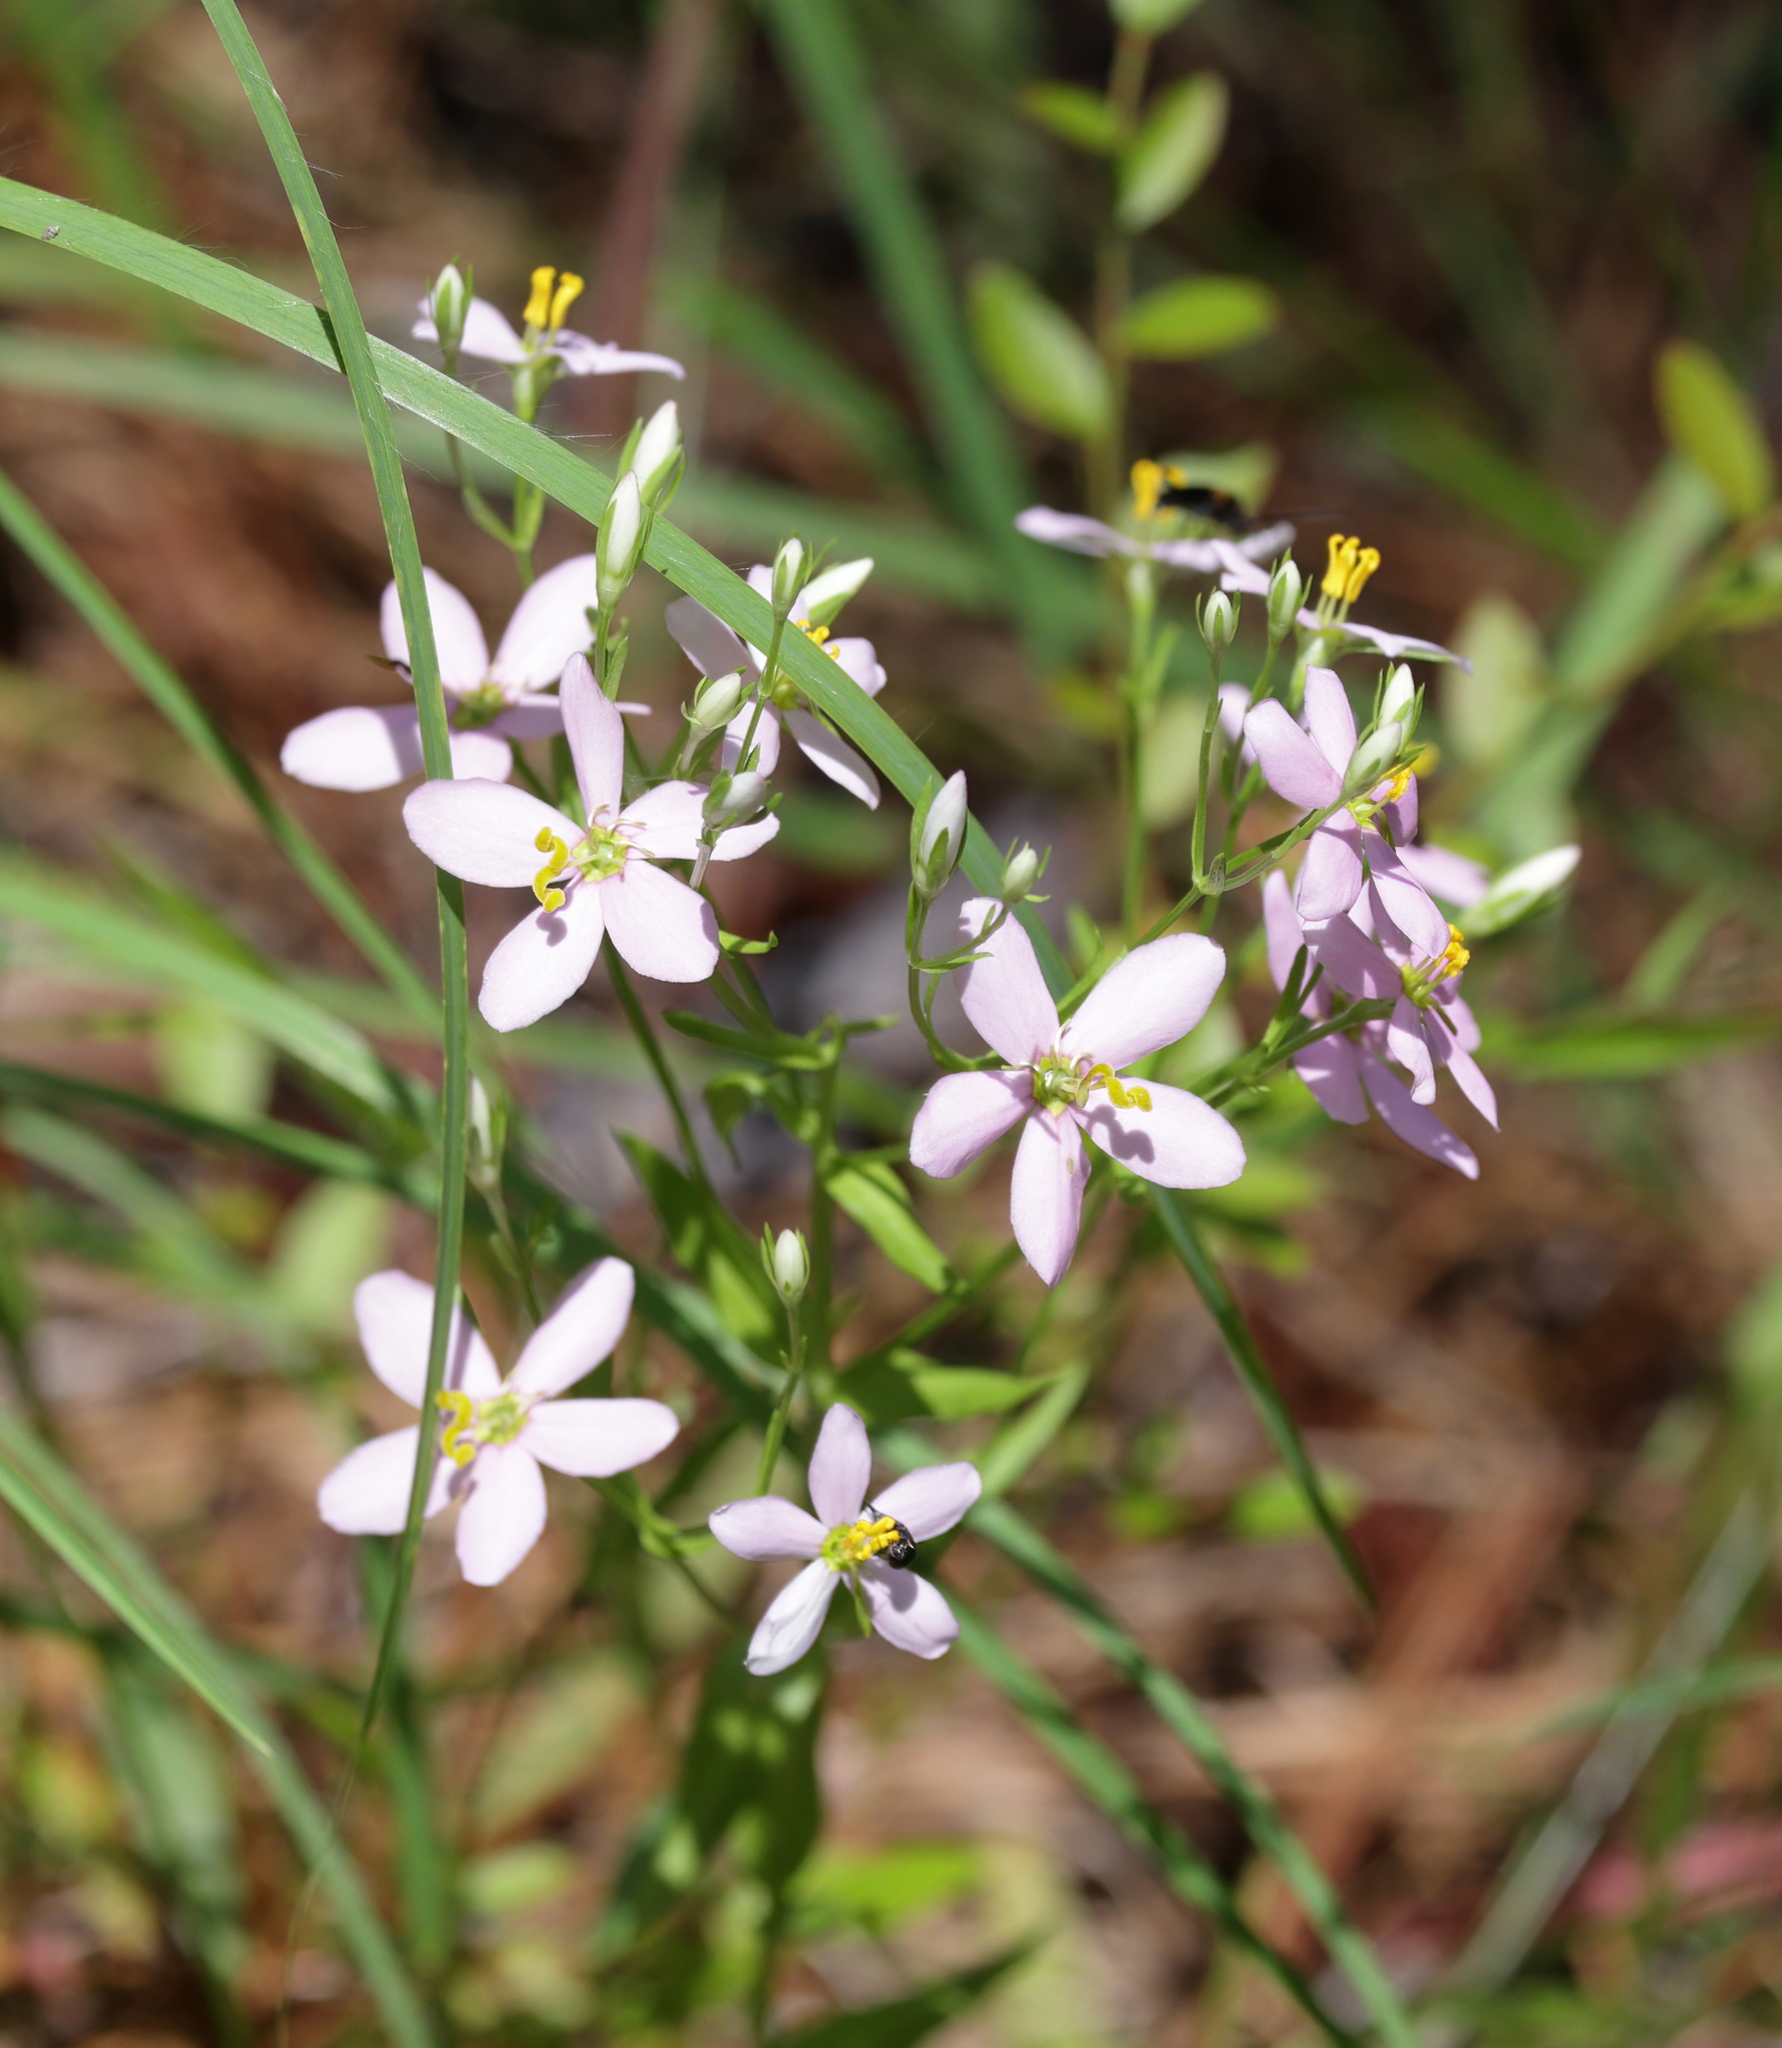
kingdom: Plantae
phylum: Tracheophyta
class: Magnoliopsida
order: Gentianales
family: Gentianaceae
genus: Sabatia
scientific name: Sabatia brachiata
